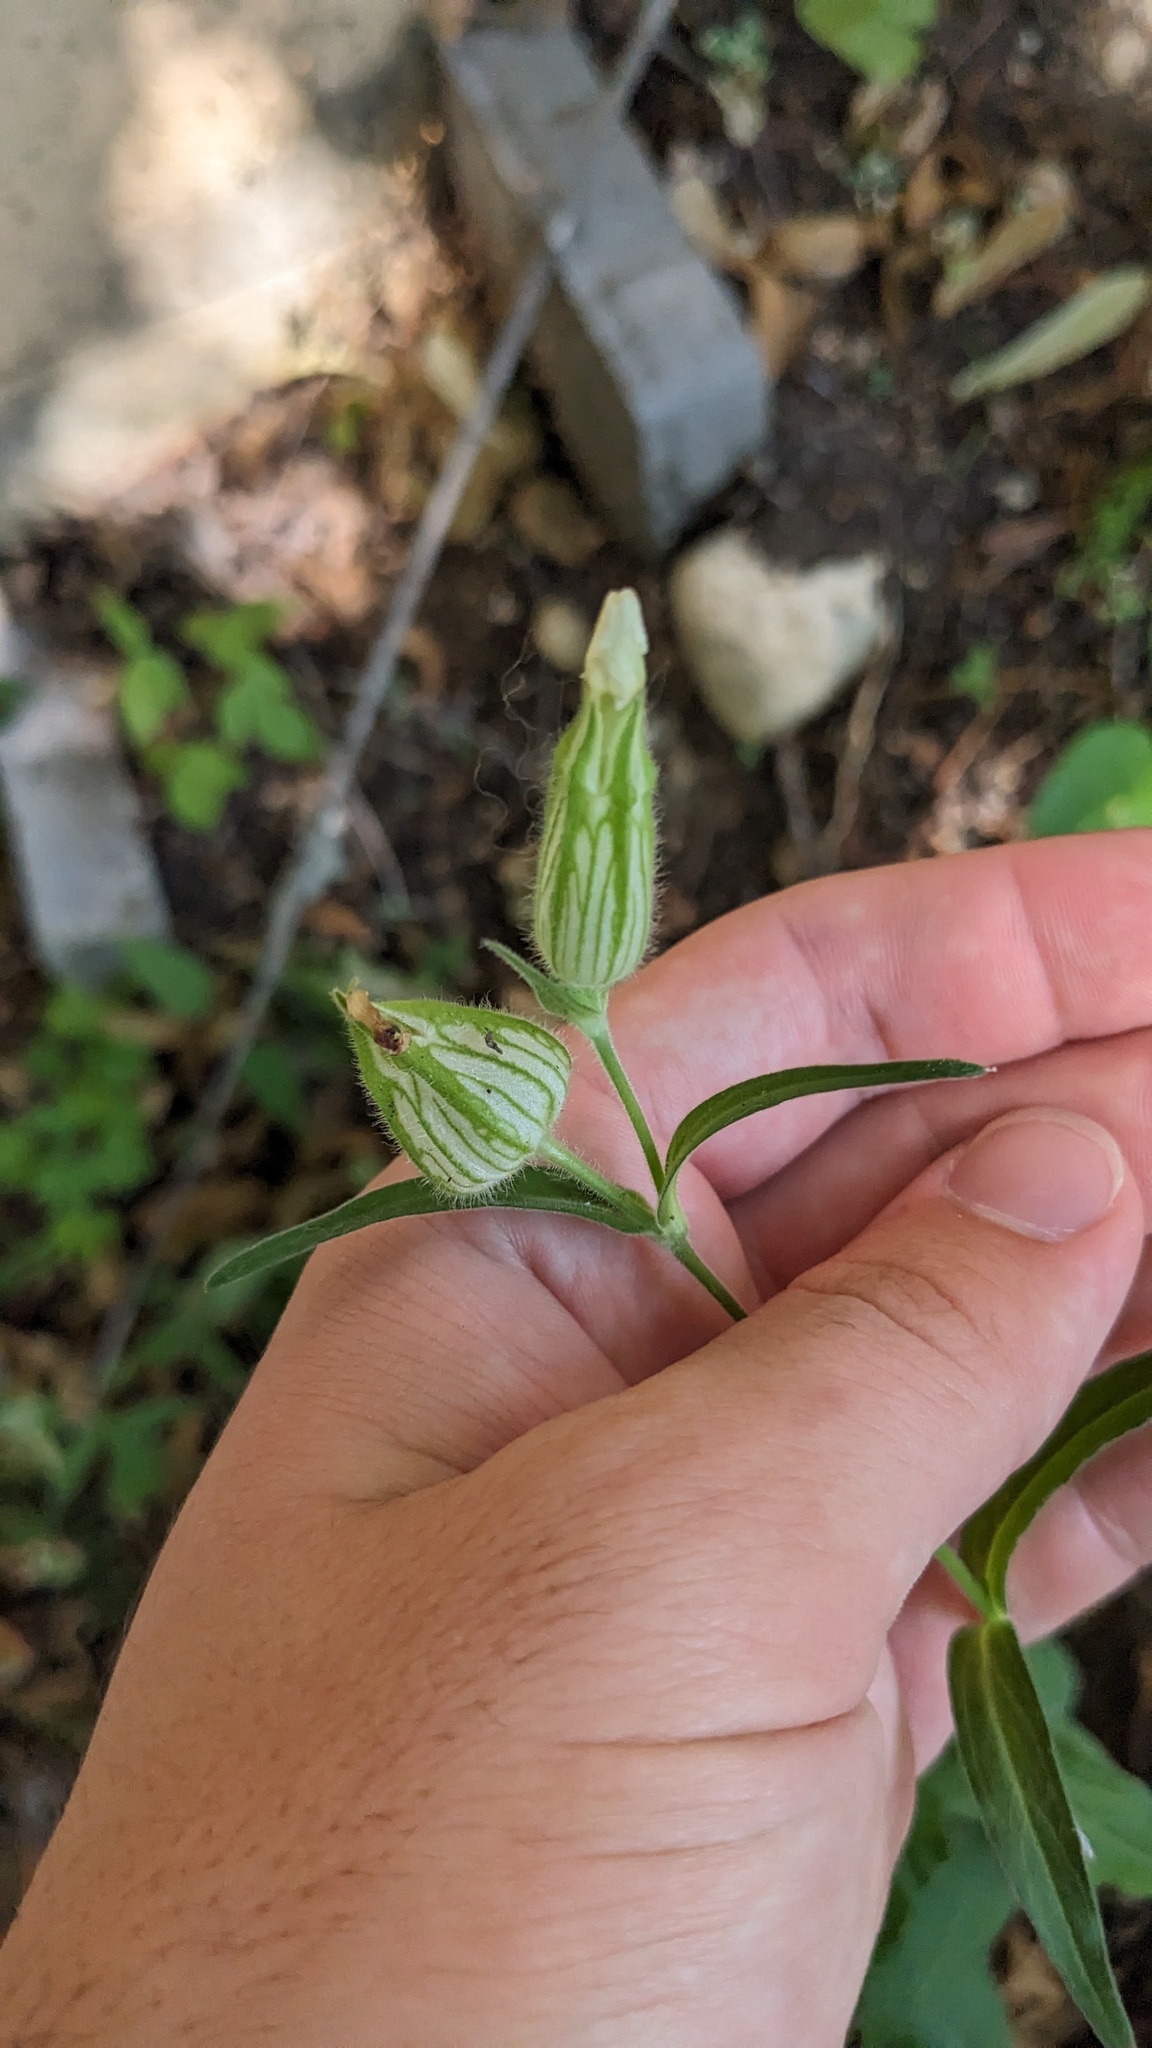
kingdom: Plantae
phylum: Tracheophyta
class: Magnoliopsida
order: Caryophyllales
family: Caryophyllaceae
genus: Silene
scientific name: Silene latifolia
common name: White campion
